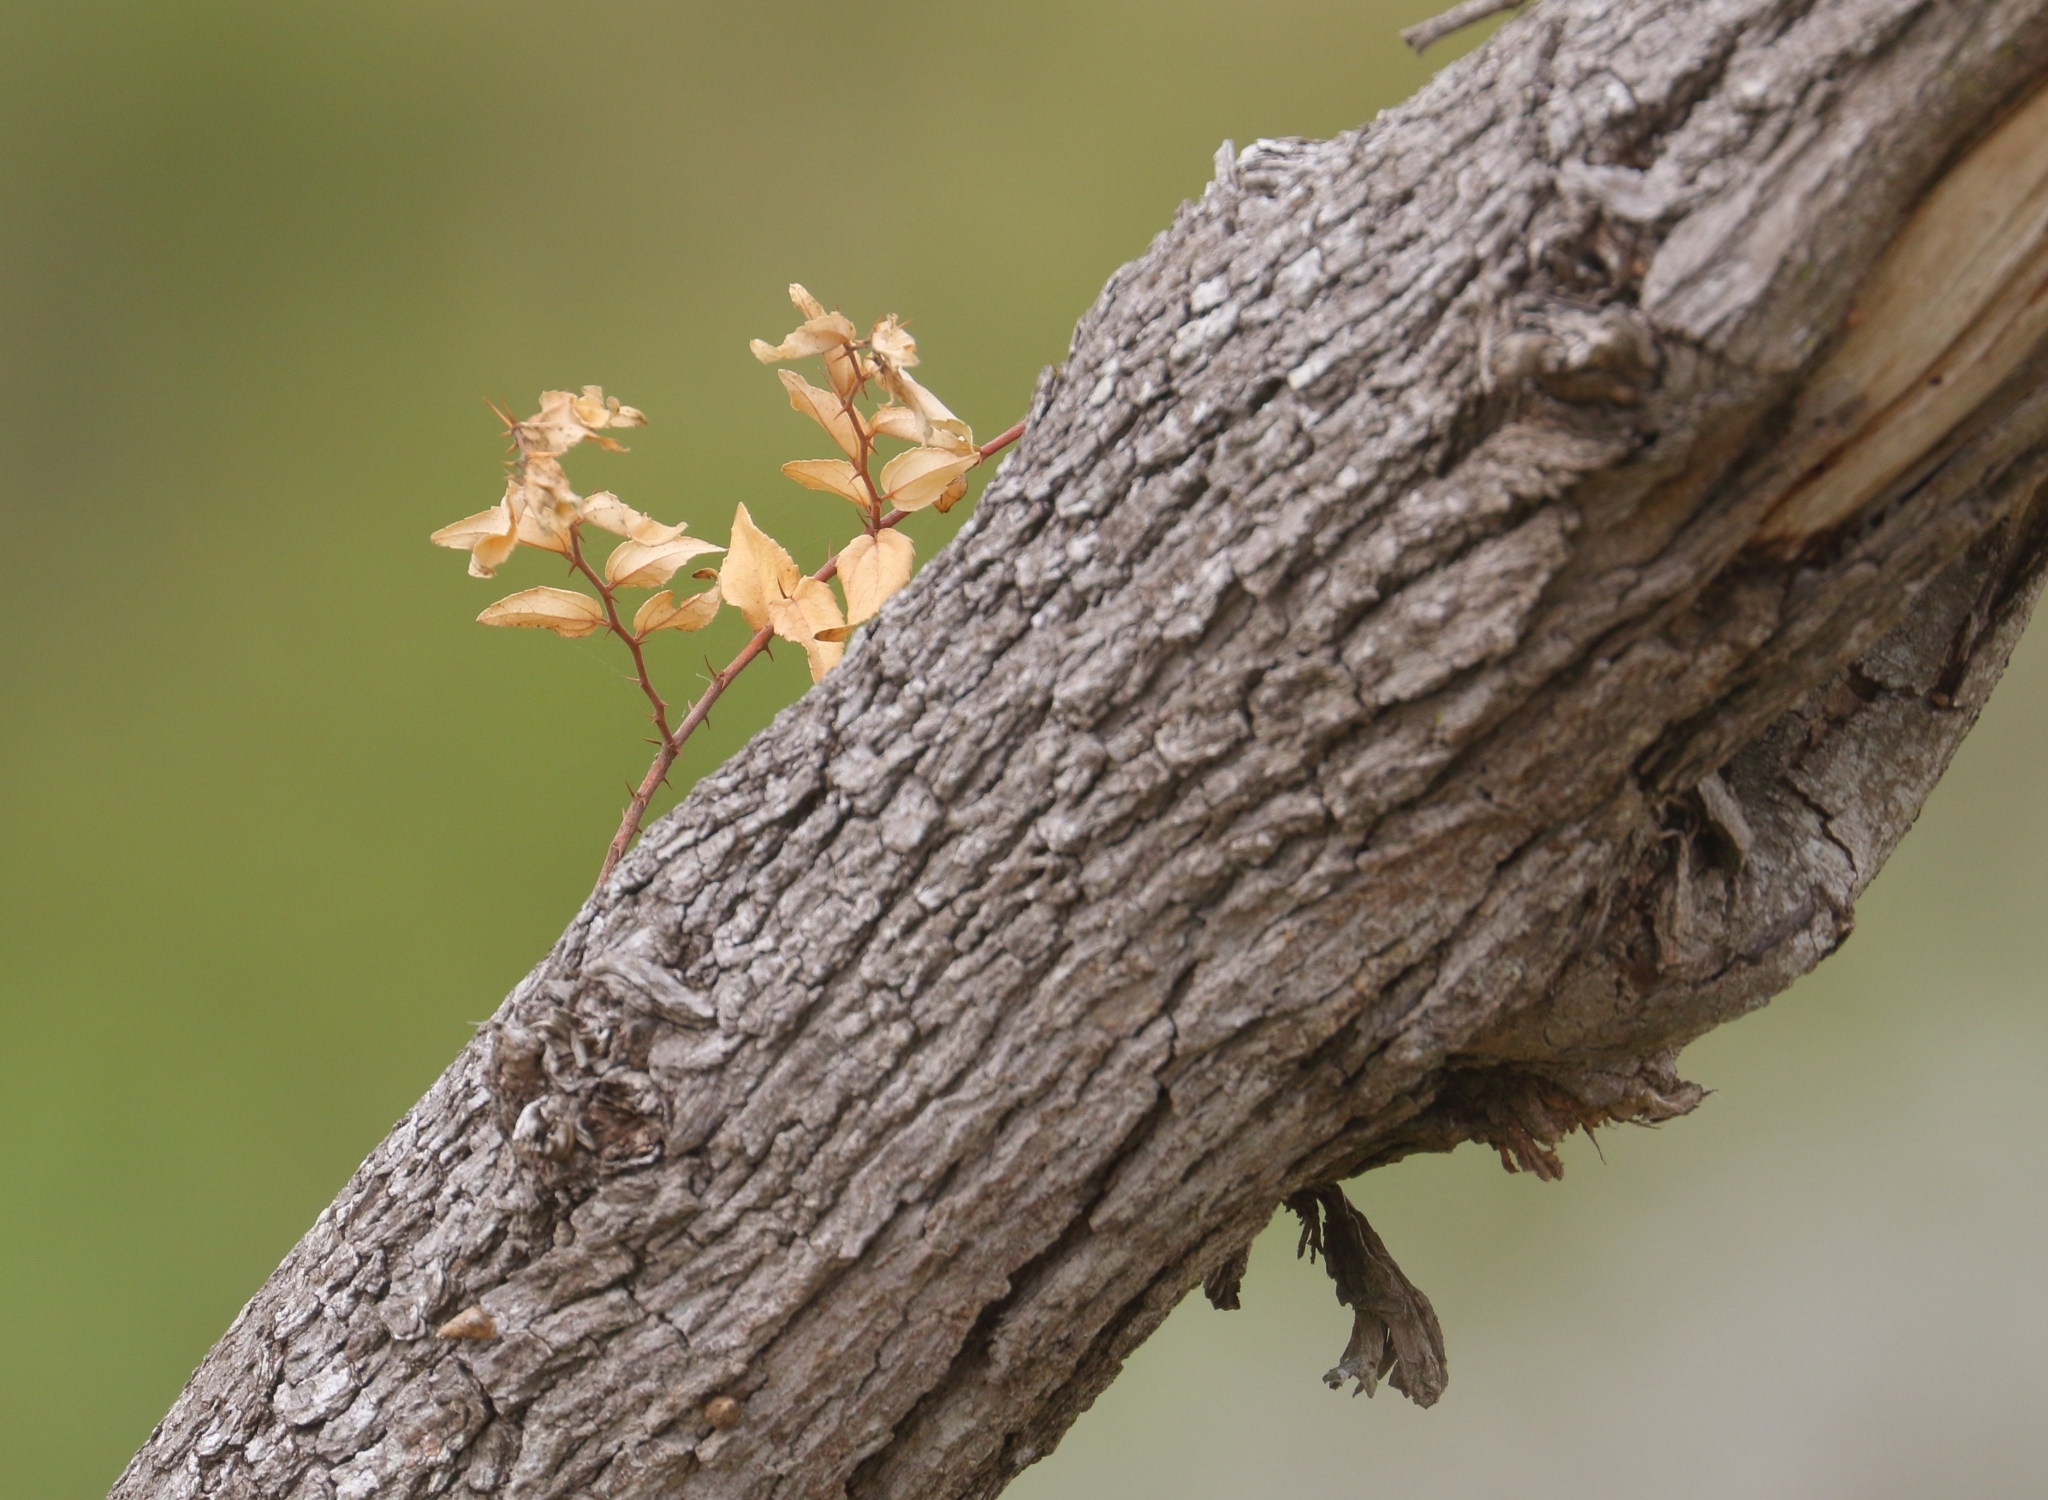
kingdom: Plantae
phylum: Tracheophyta
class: Magnoliopsida
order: Rosales
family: Rhamnaceae
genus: Ziziphus
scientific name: Ziziphus mucronata
